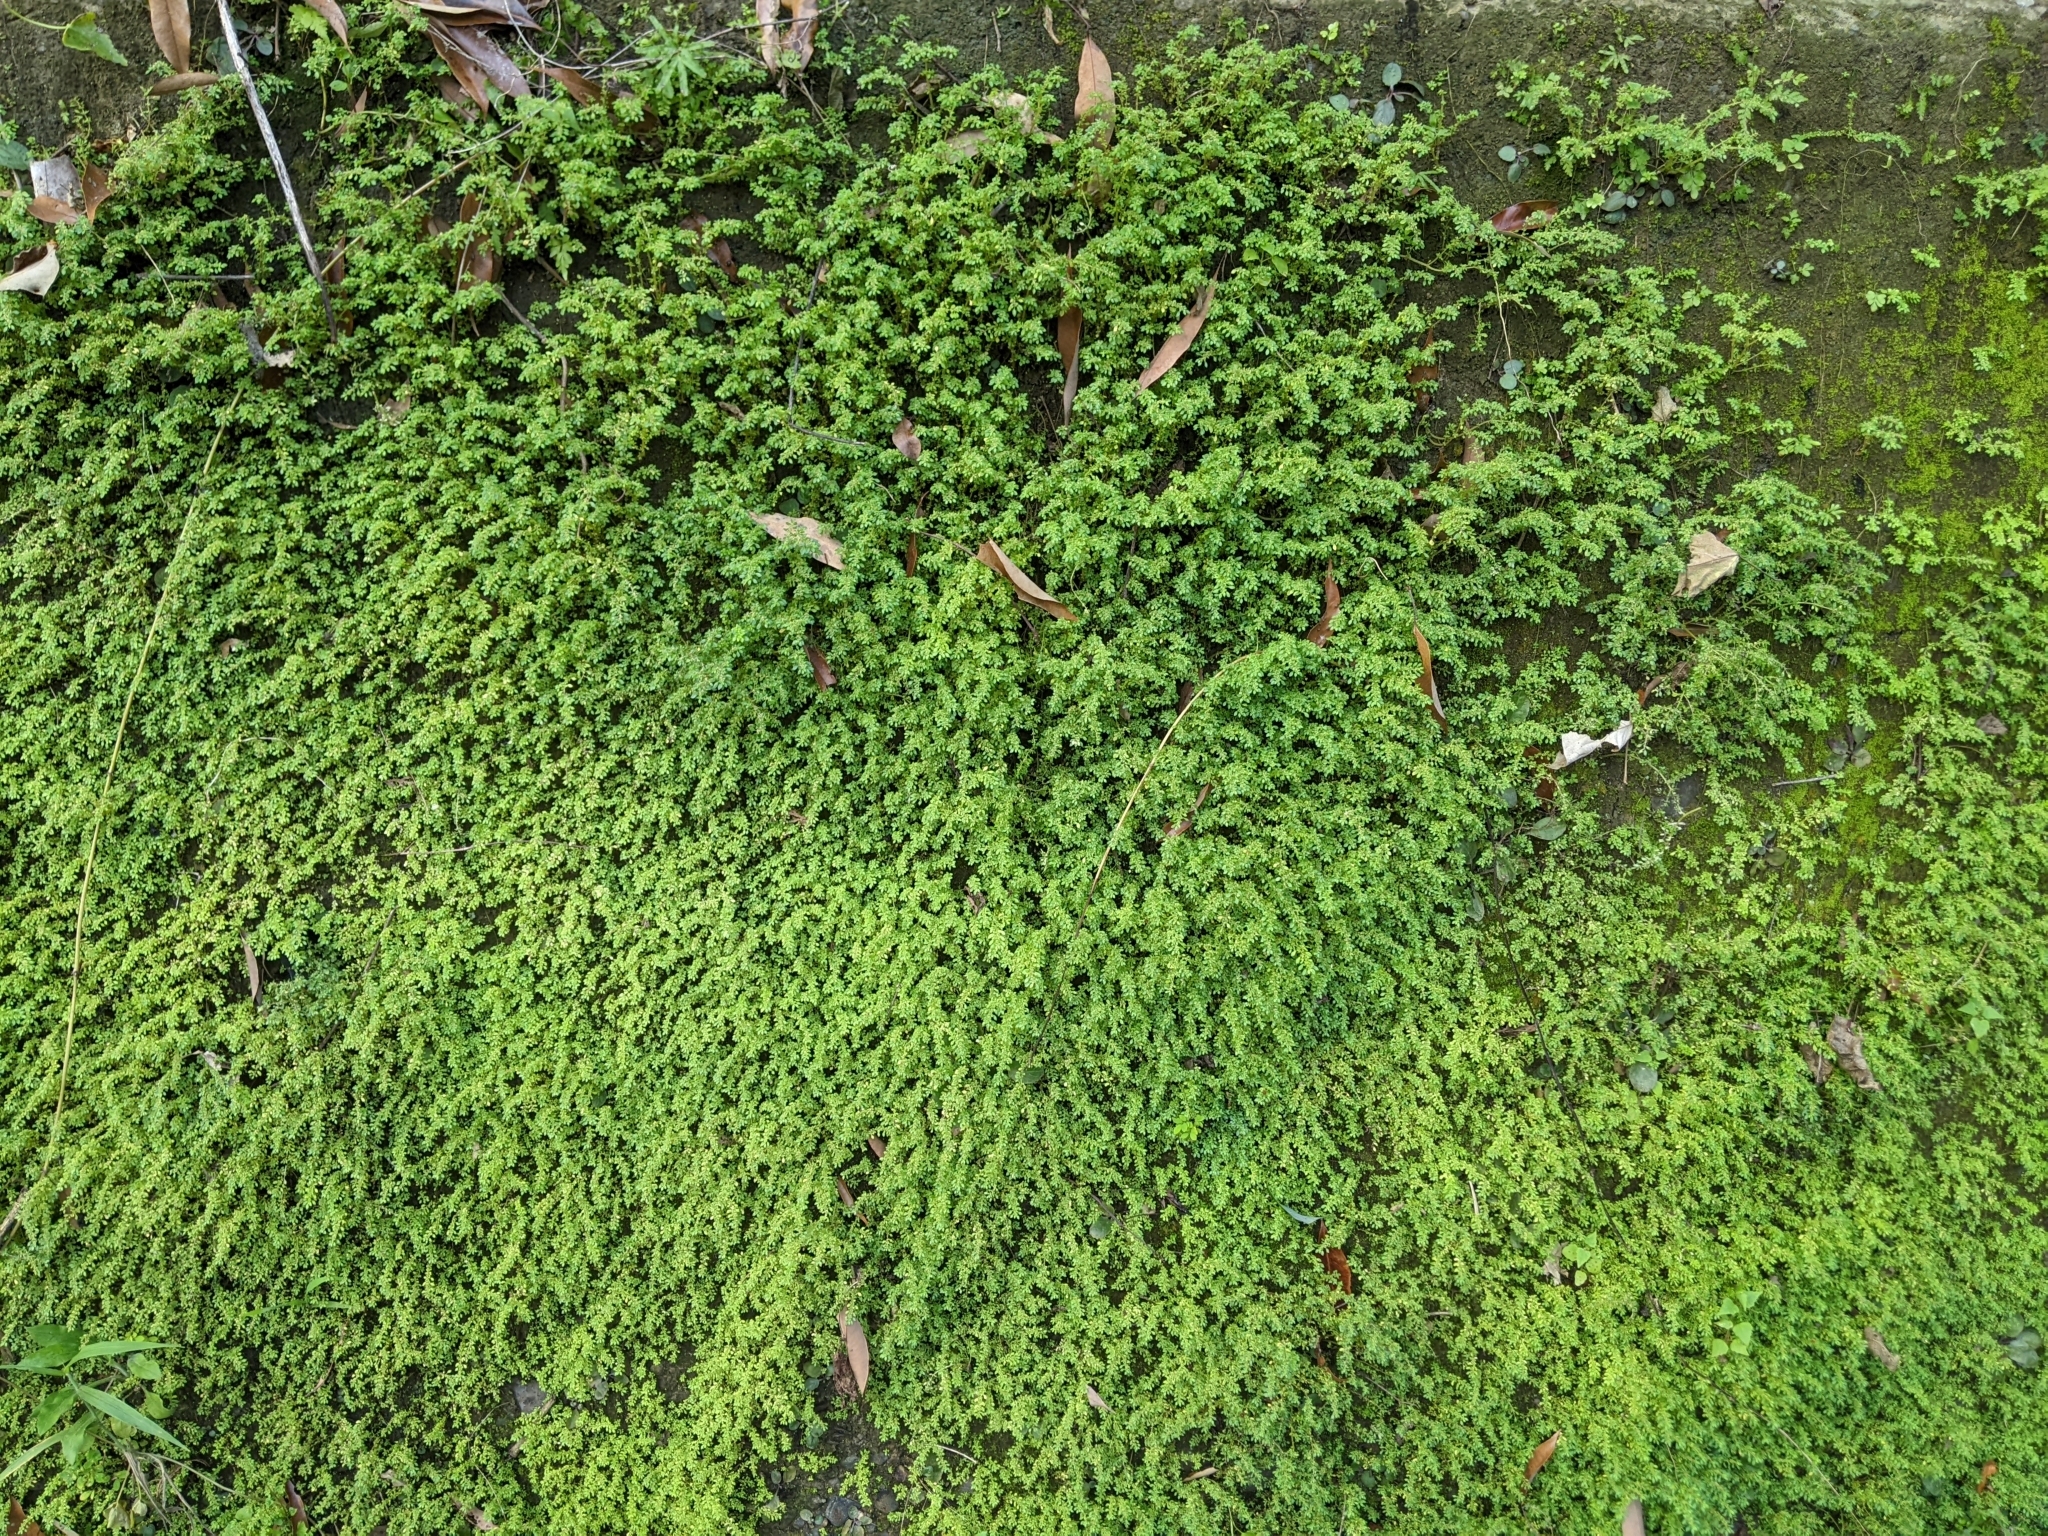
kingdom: Plantae
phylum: Tracheophyta
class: Magnoliopsida
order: Rosales
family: Urticaceae
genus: Pilea
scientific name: Pilea microphylla
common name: Artillery-plant
